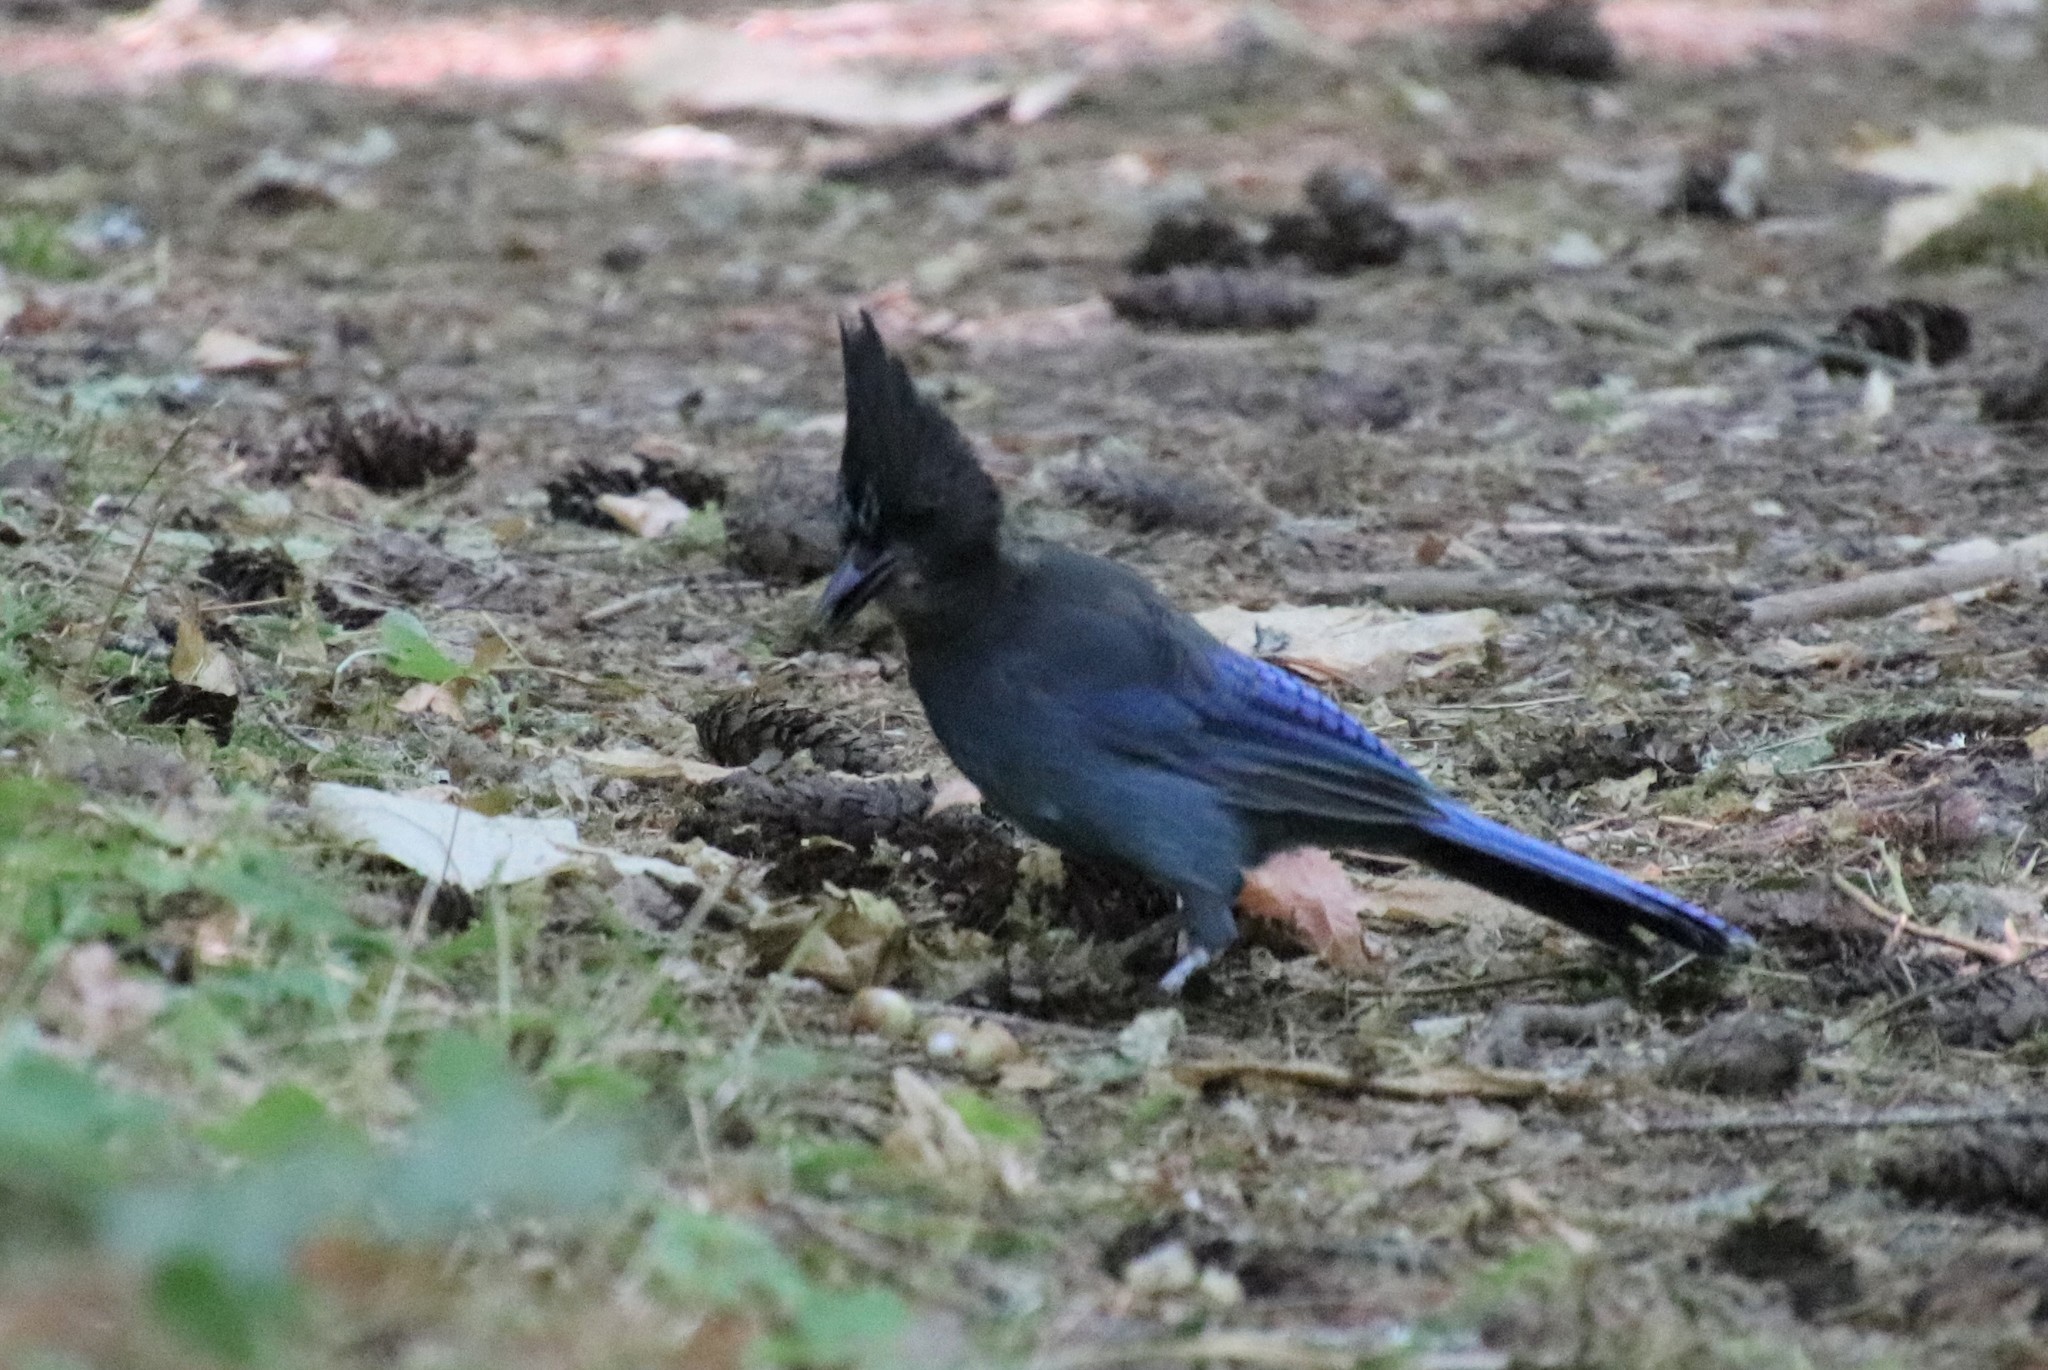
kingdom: Animalia
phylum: Chordata
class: Aves
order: Passeriformes
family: Corvidae
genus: Cyanocitta
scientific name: Cyanocitta stelleri
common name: Steller's jay
